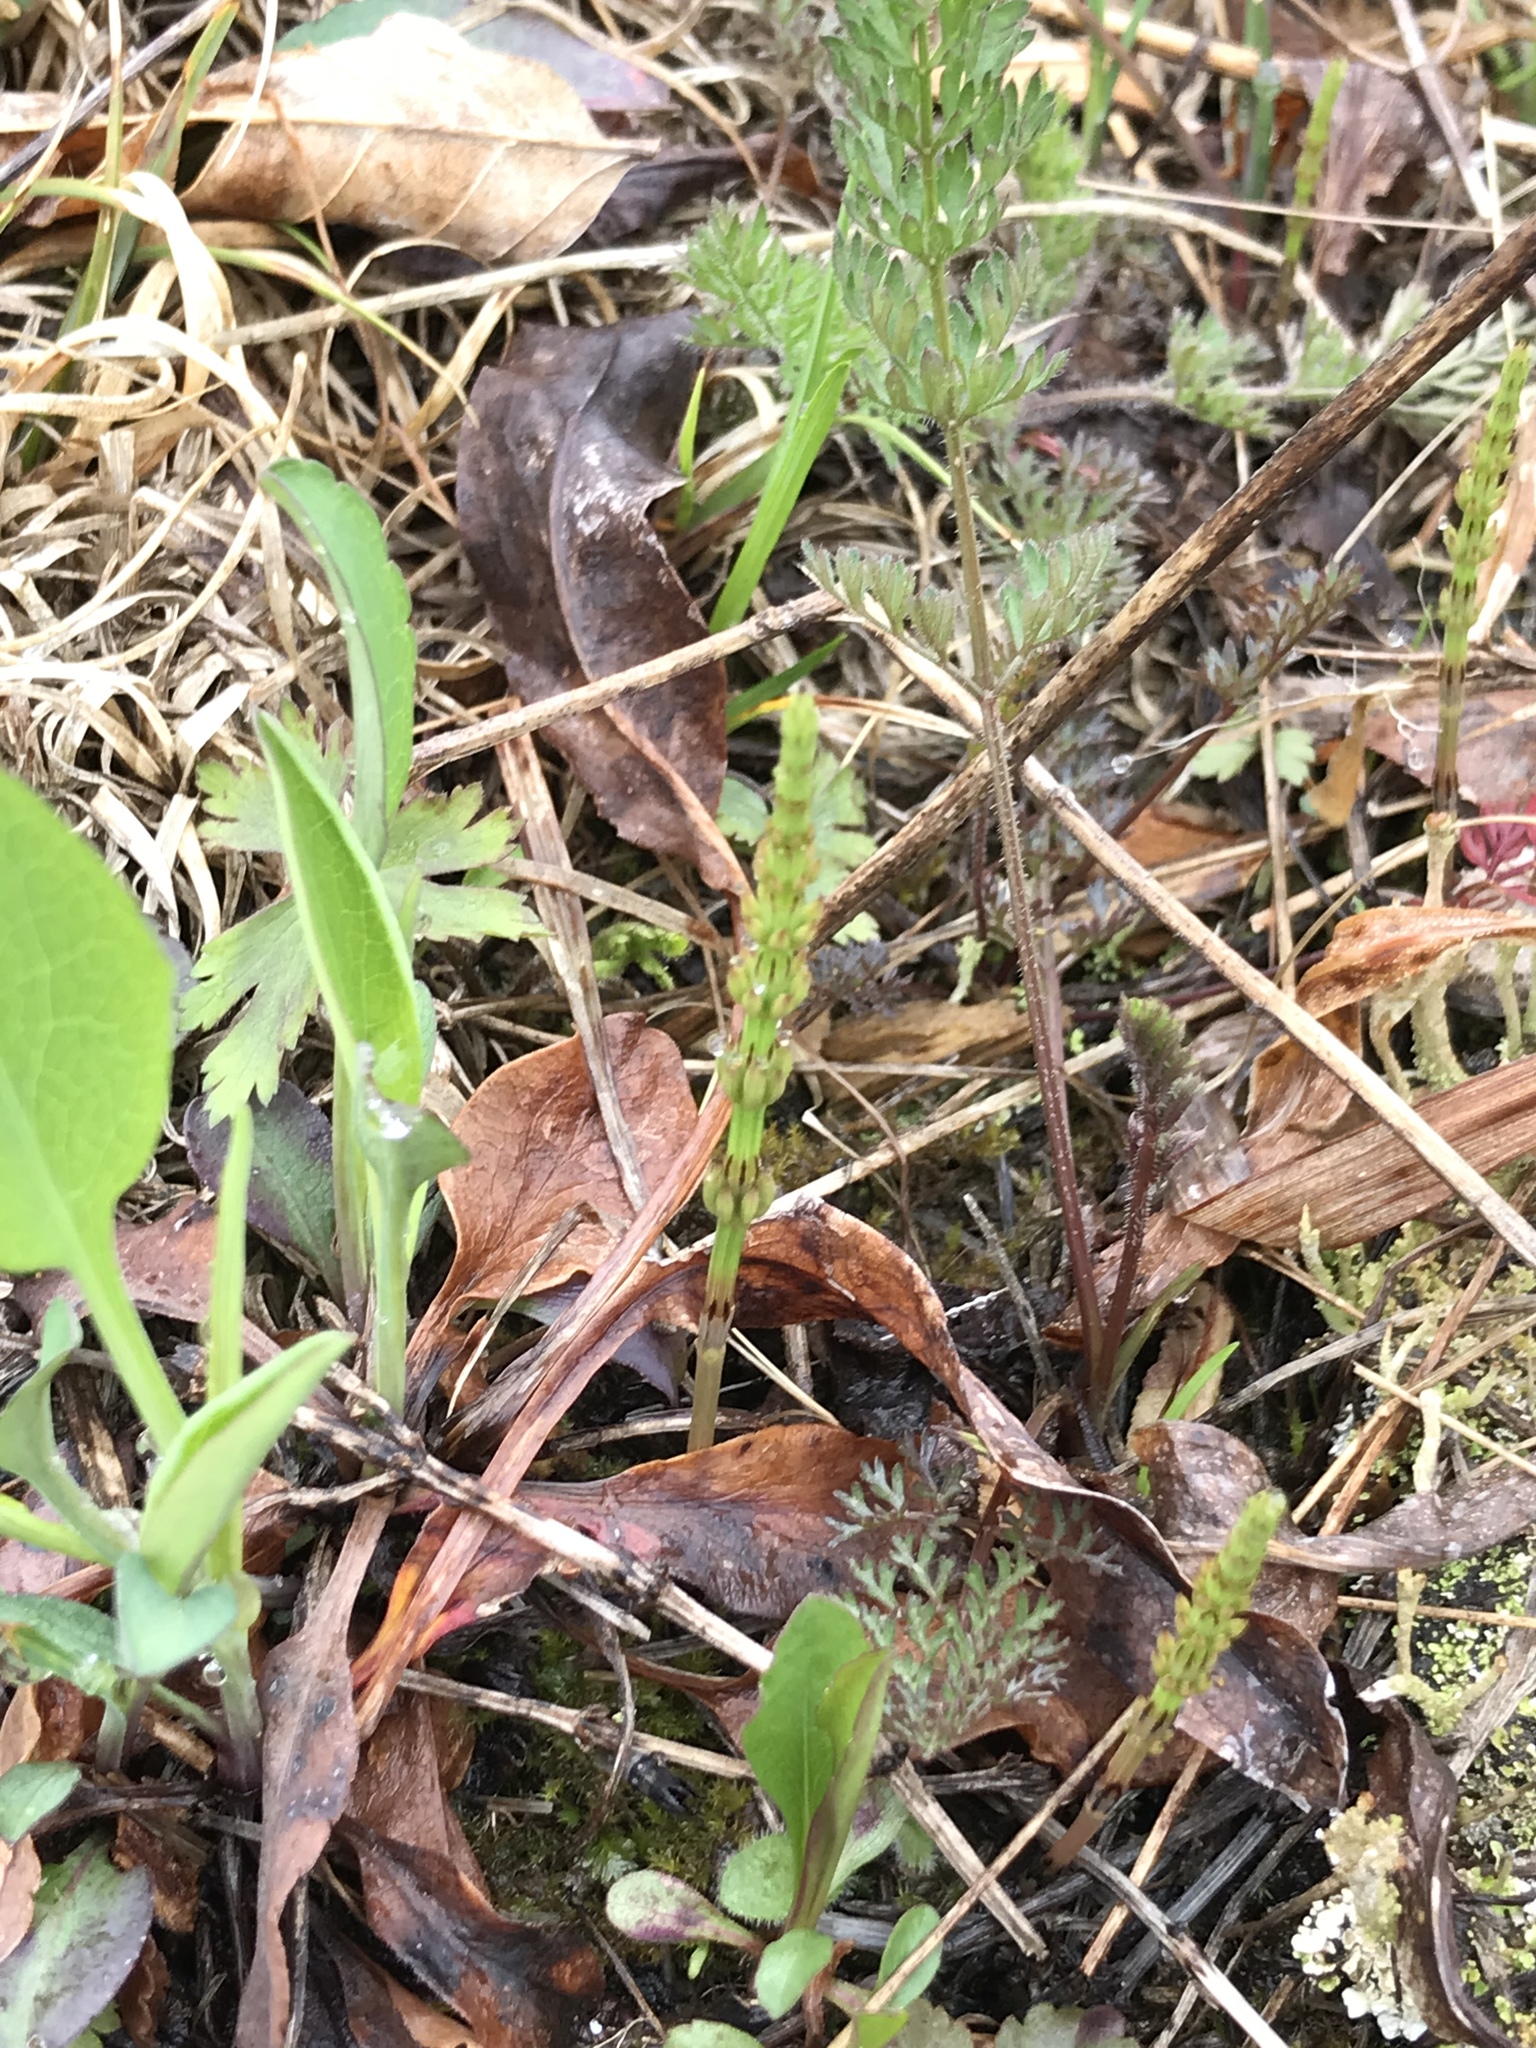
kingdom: Plantae
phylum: Tracheophyta
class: Polypodiopsida
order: Equisetales
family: Equisetaceae
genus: Equisetum
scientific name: Equisetum arvense
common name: Field horsetail
